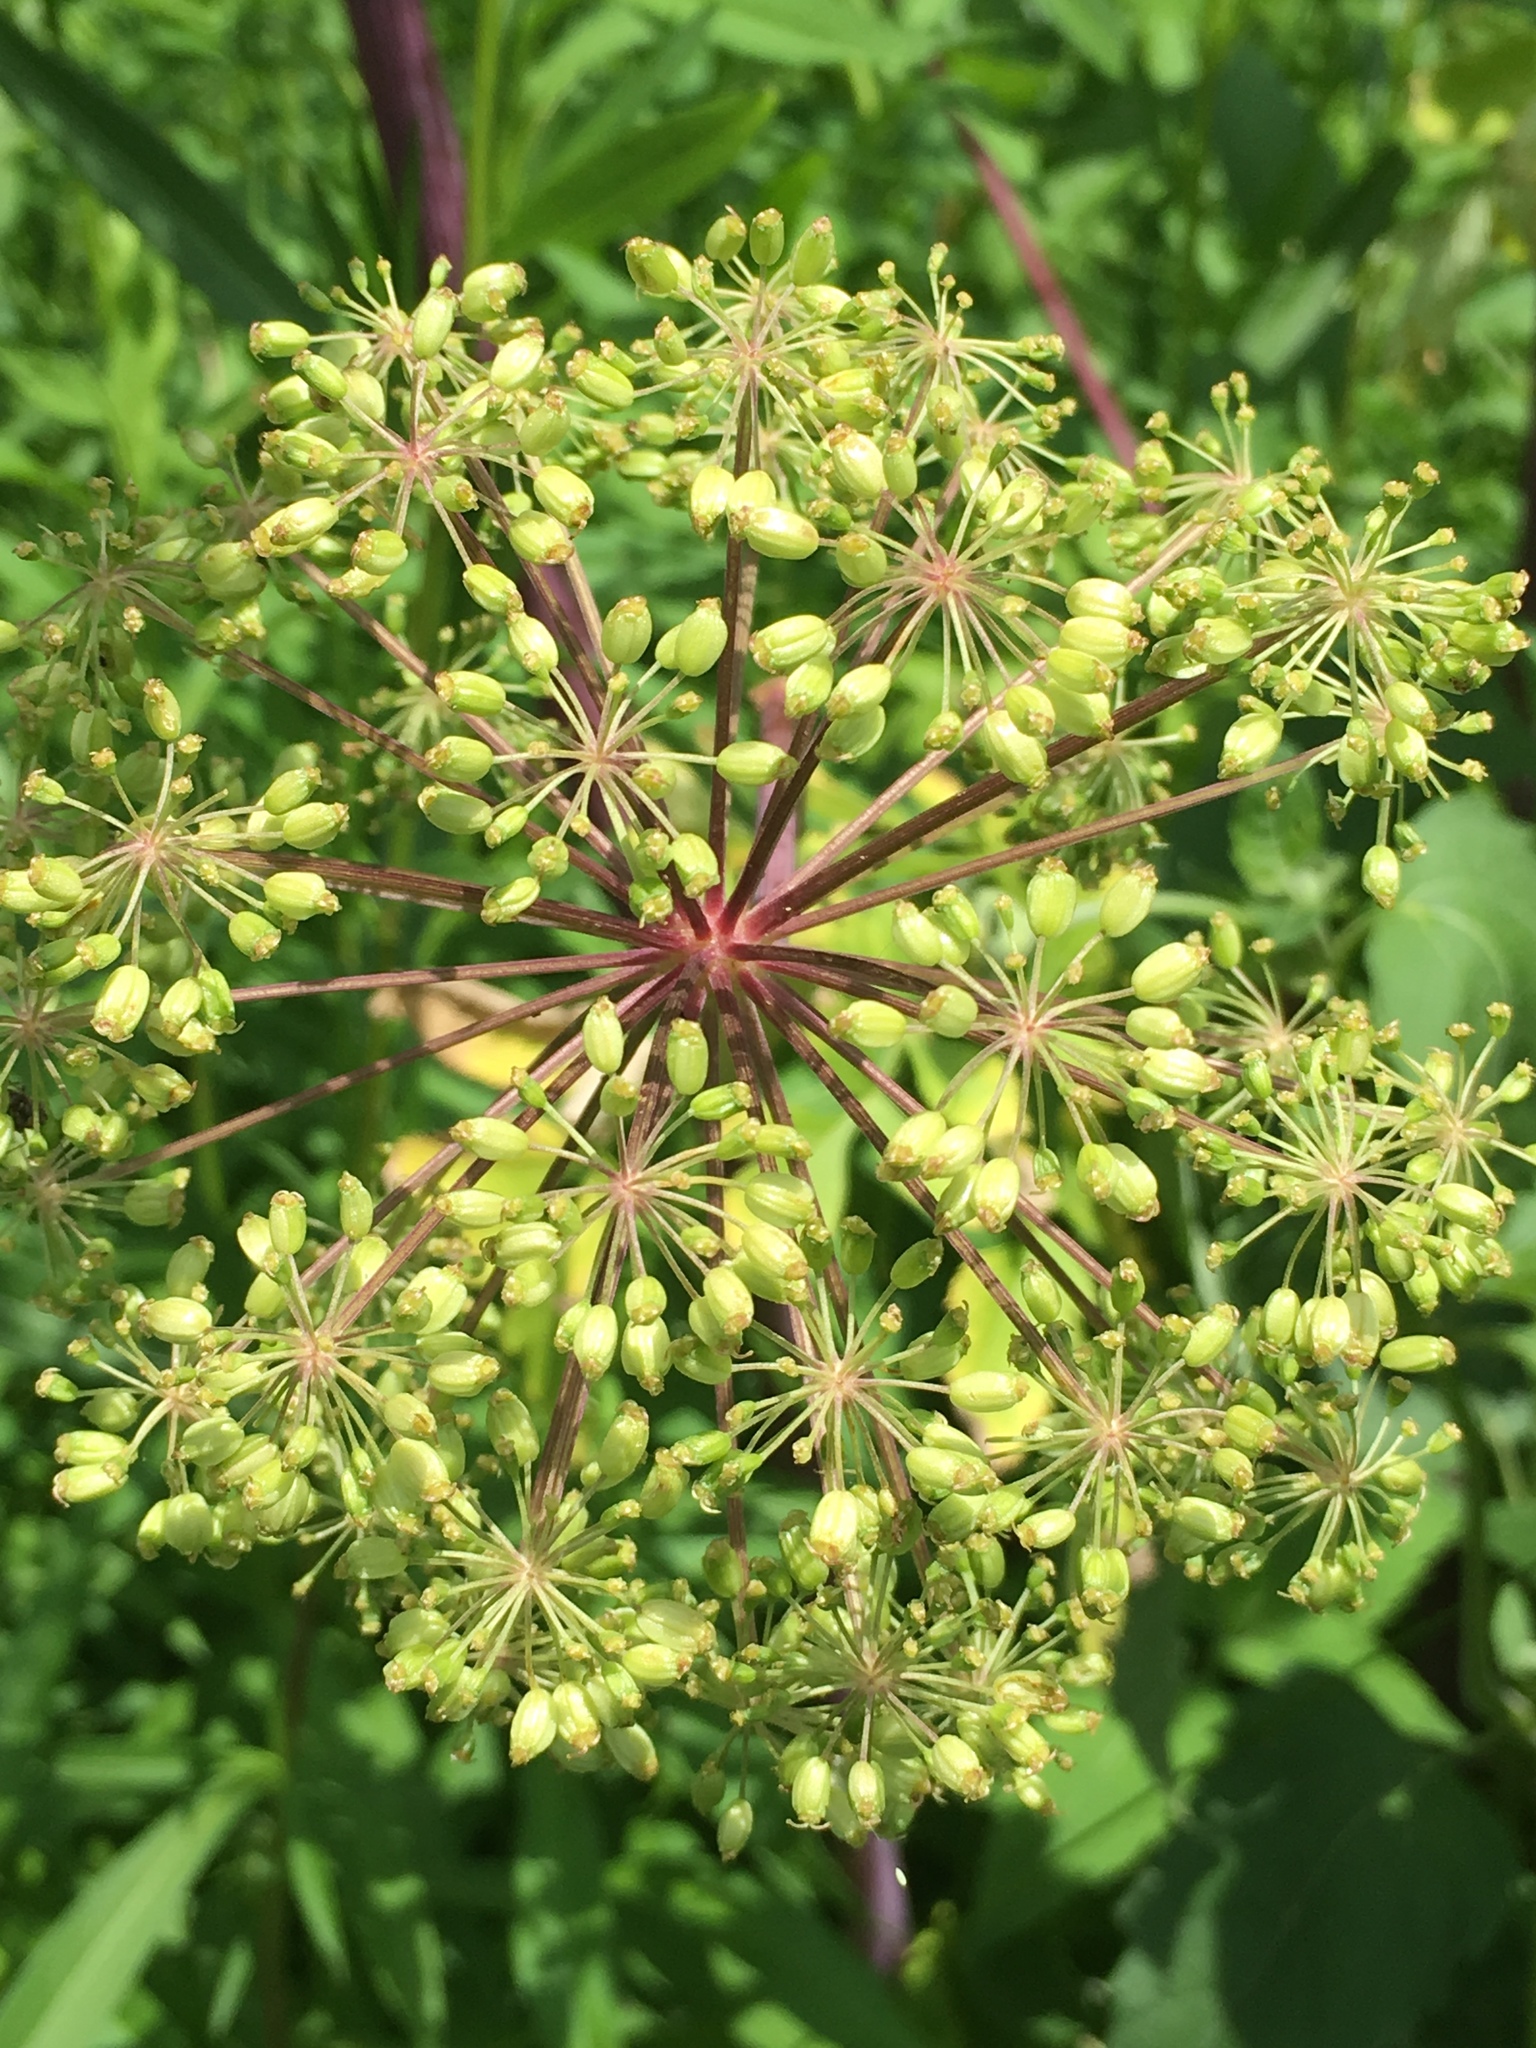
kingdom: Plantae
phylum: Tracheophyta
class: Magnoliopsida
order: Apiales
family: Apiaceae
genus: Angelica
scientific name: Angelica atropurpurea
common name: Great angelica
